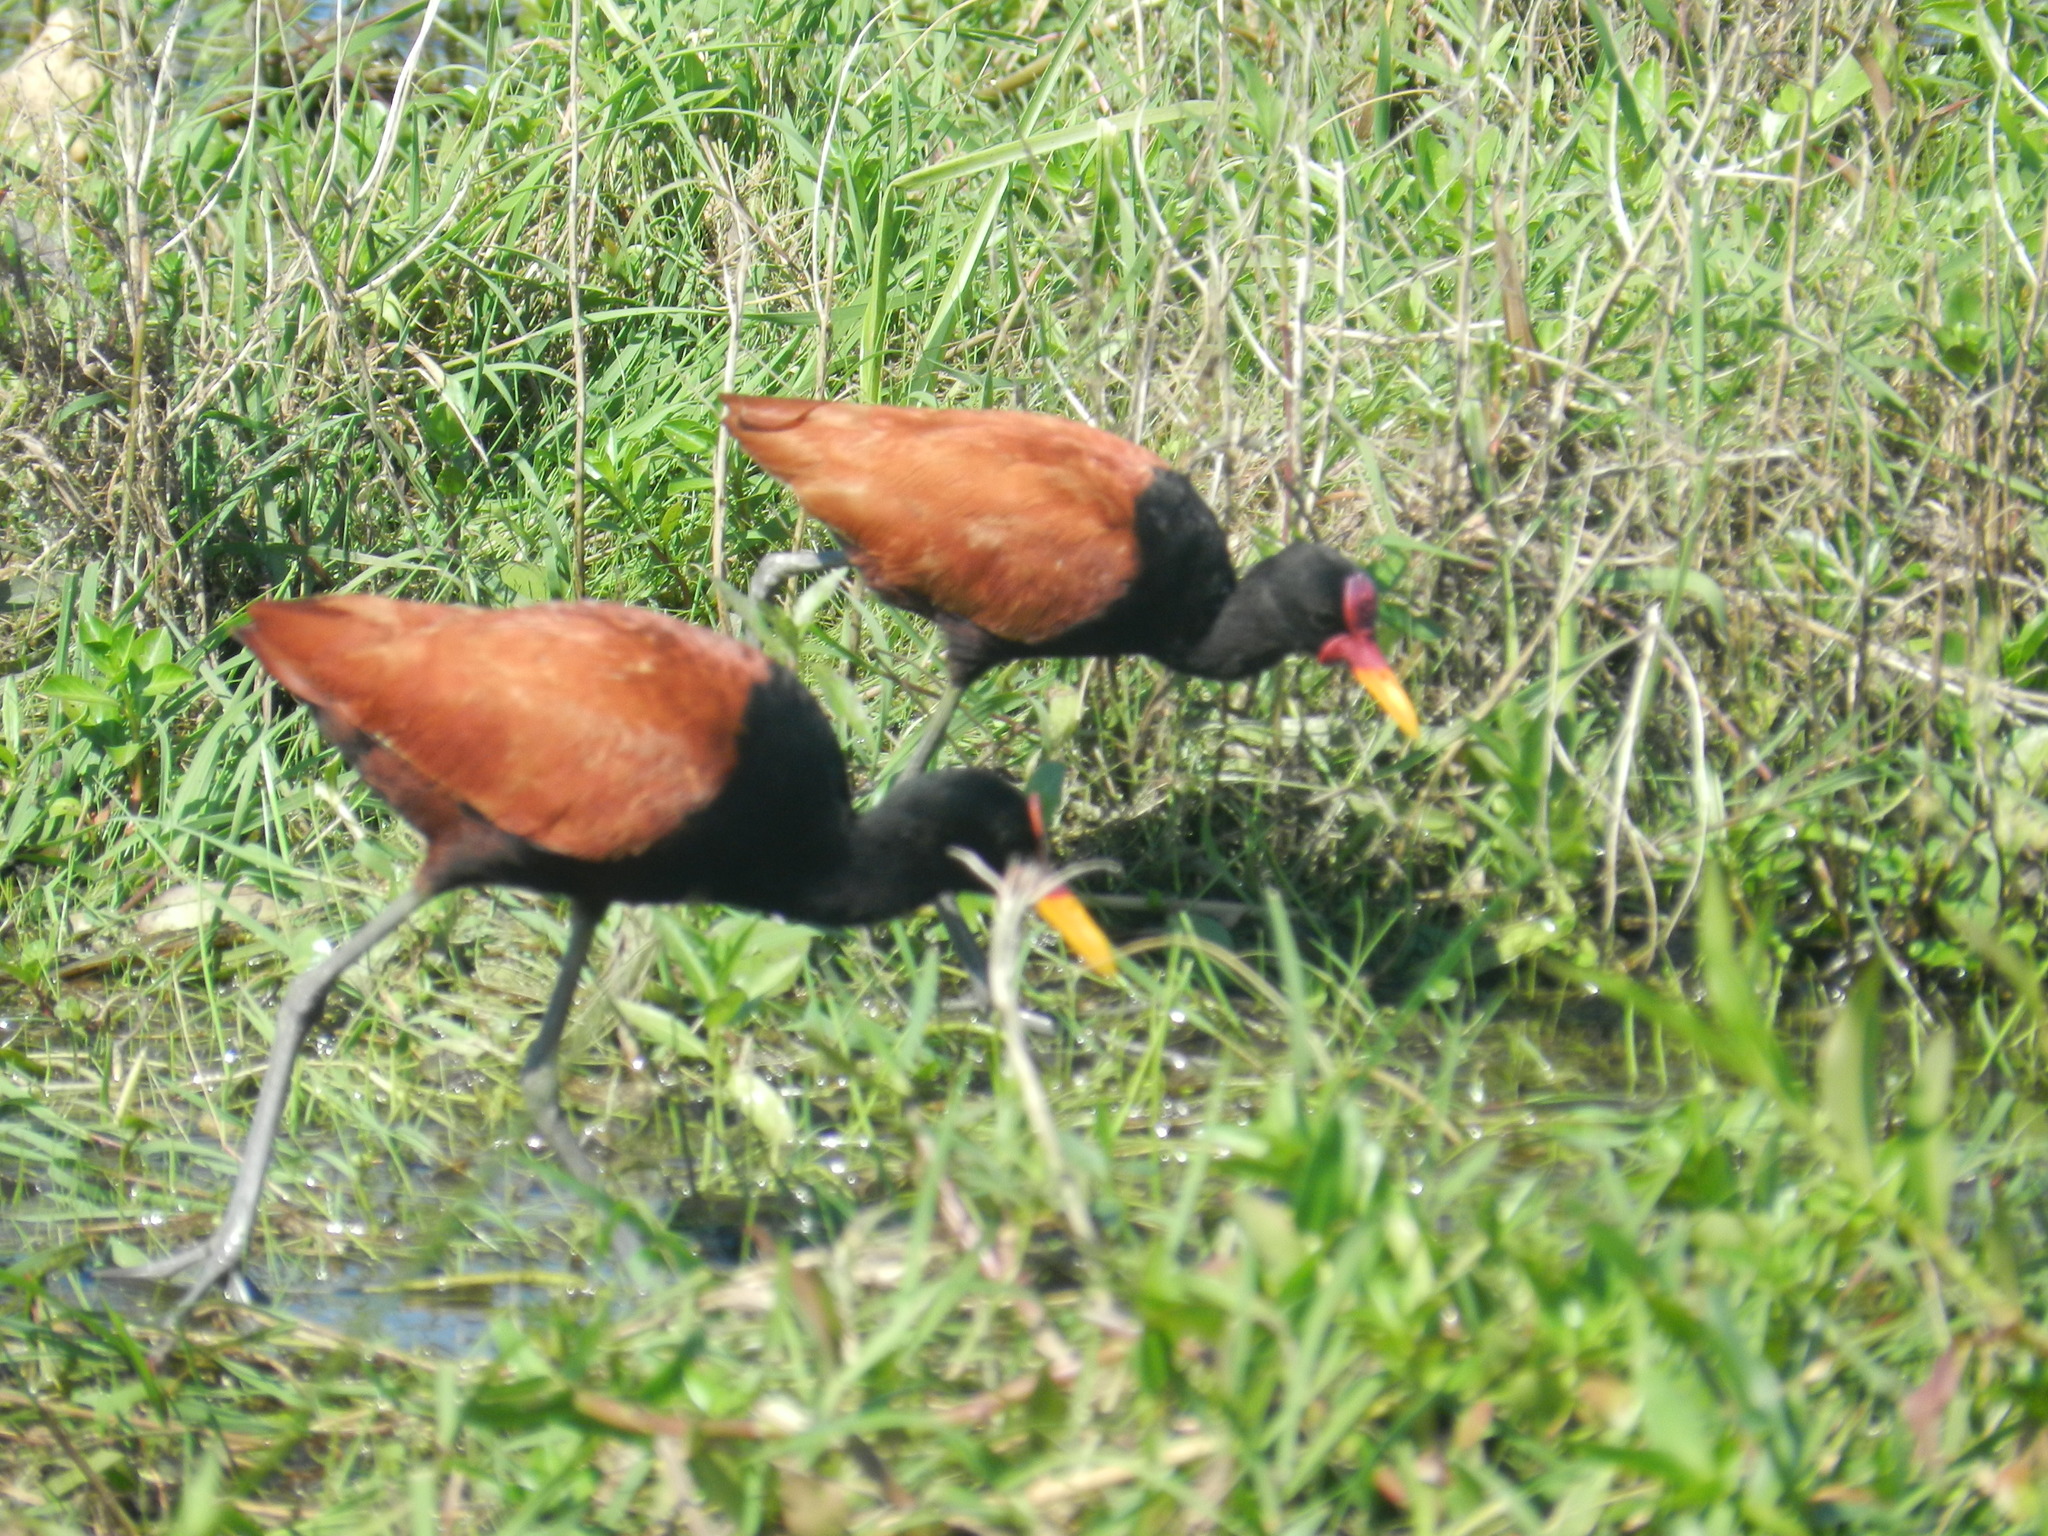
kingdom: Animalia
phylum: Chordata
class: Aves
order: Charadriiformes
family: Jacanidae
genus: Jacana
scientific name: Jacana jacana
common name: Wattled jacana
